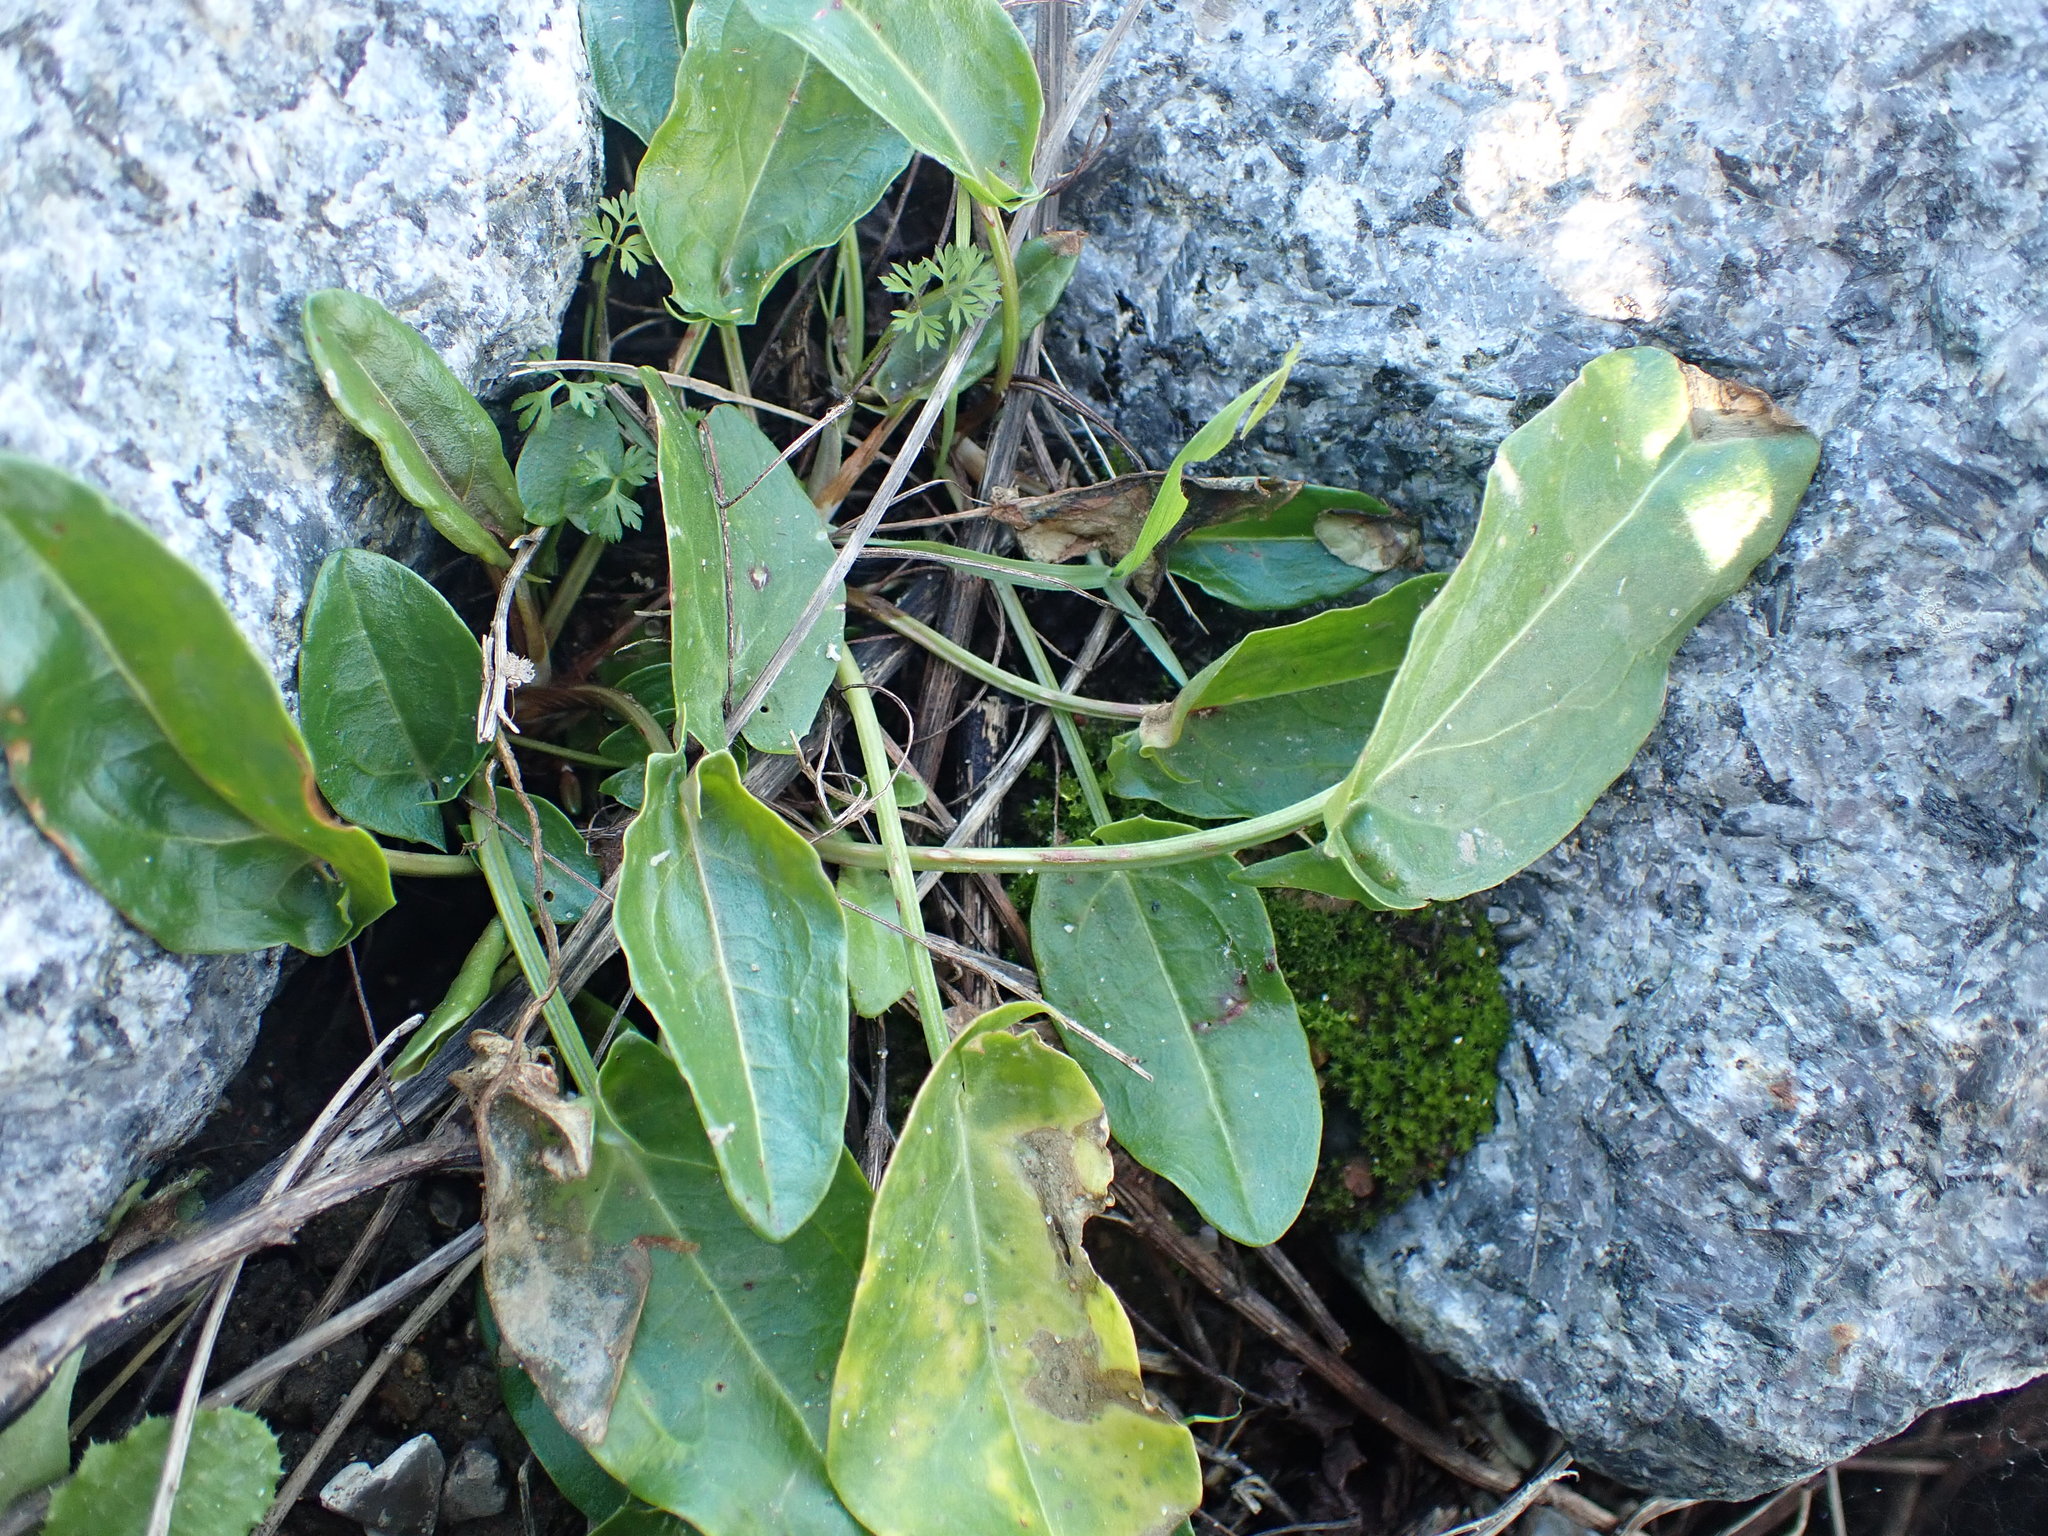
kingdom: Plantae
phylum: Tracheophyta
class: Magnoliopsida
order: Caryophyllales
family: Polygonaceae
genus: Rumex
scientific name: Rumex acetosa
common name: Garden sorrel
